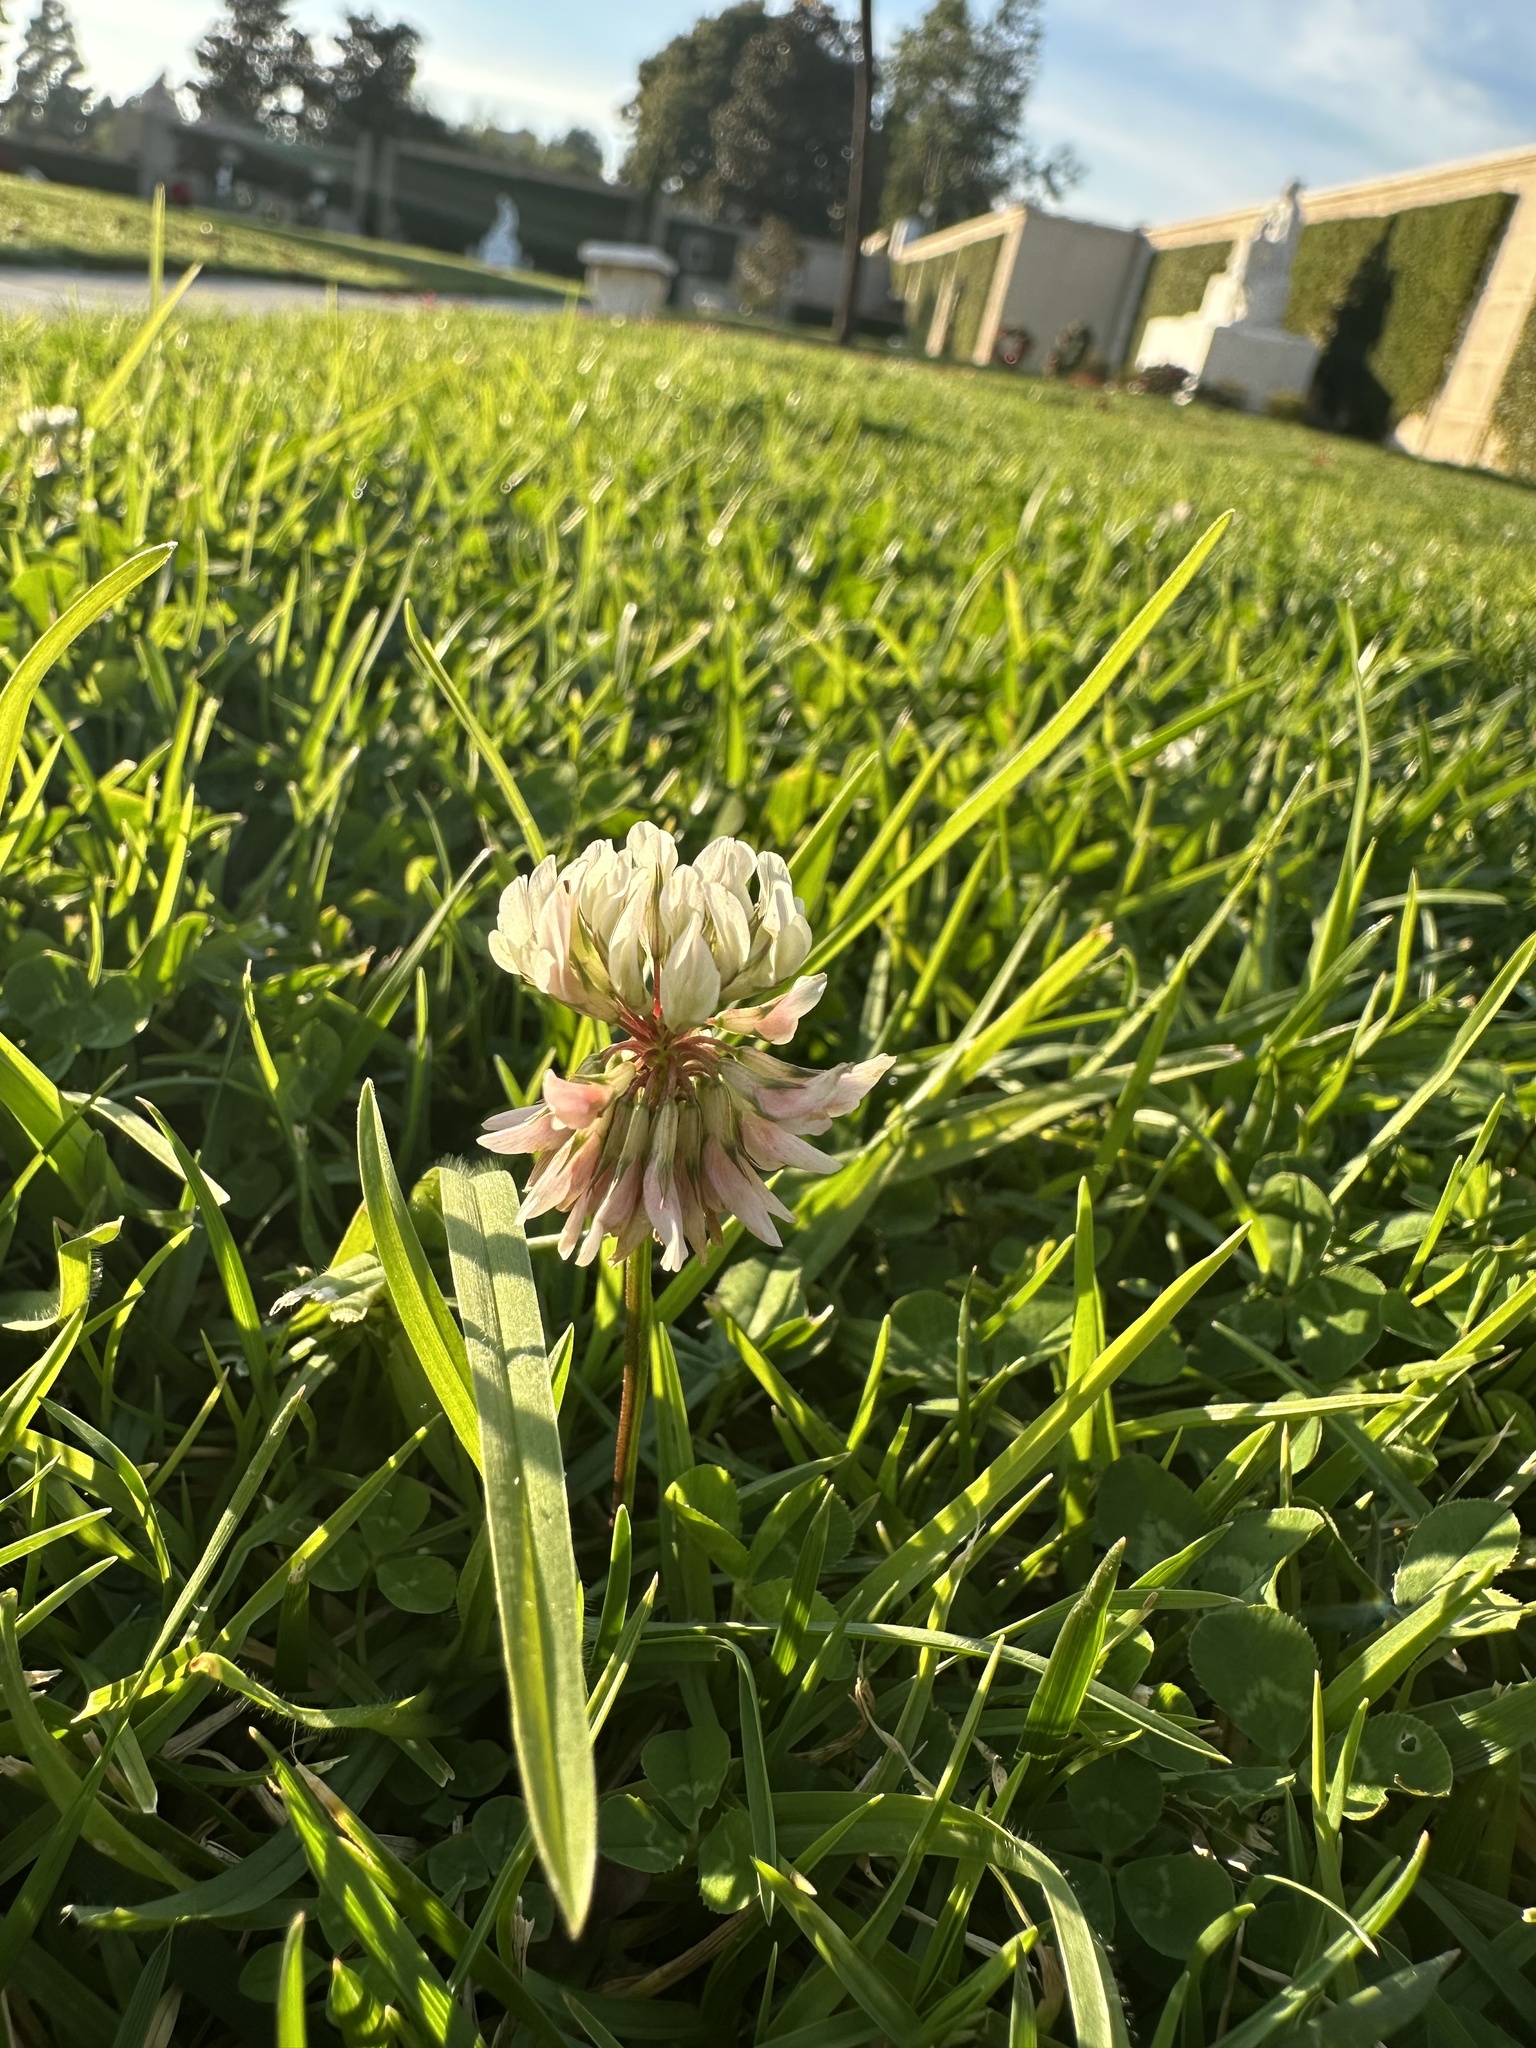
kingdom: Plantae
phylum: Tracheophyta
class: Magnoliopsida
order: Fabales
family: Fabaceae
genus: Trifolium
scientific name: Trifolium repens
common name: White clover
